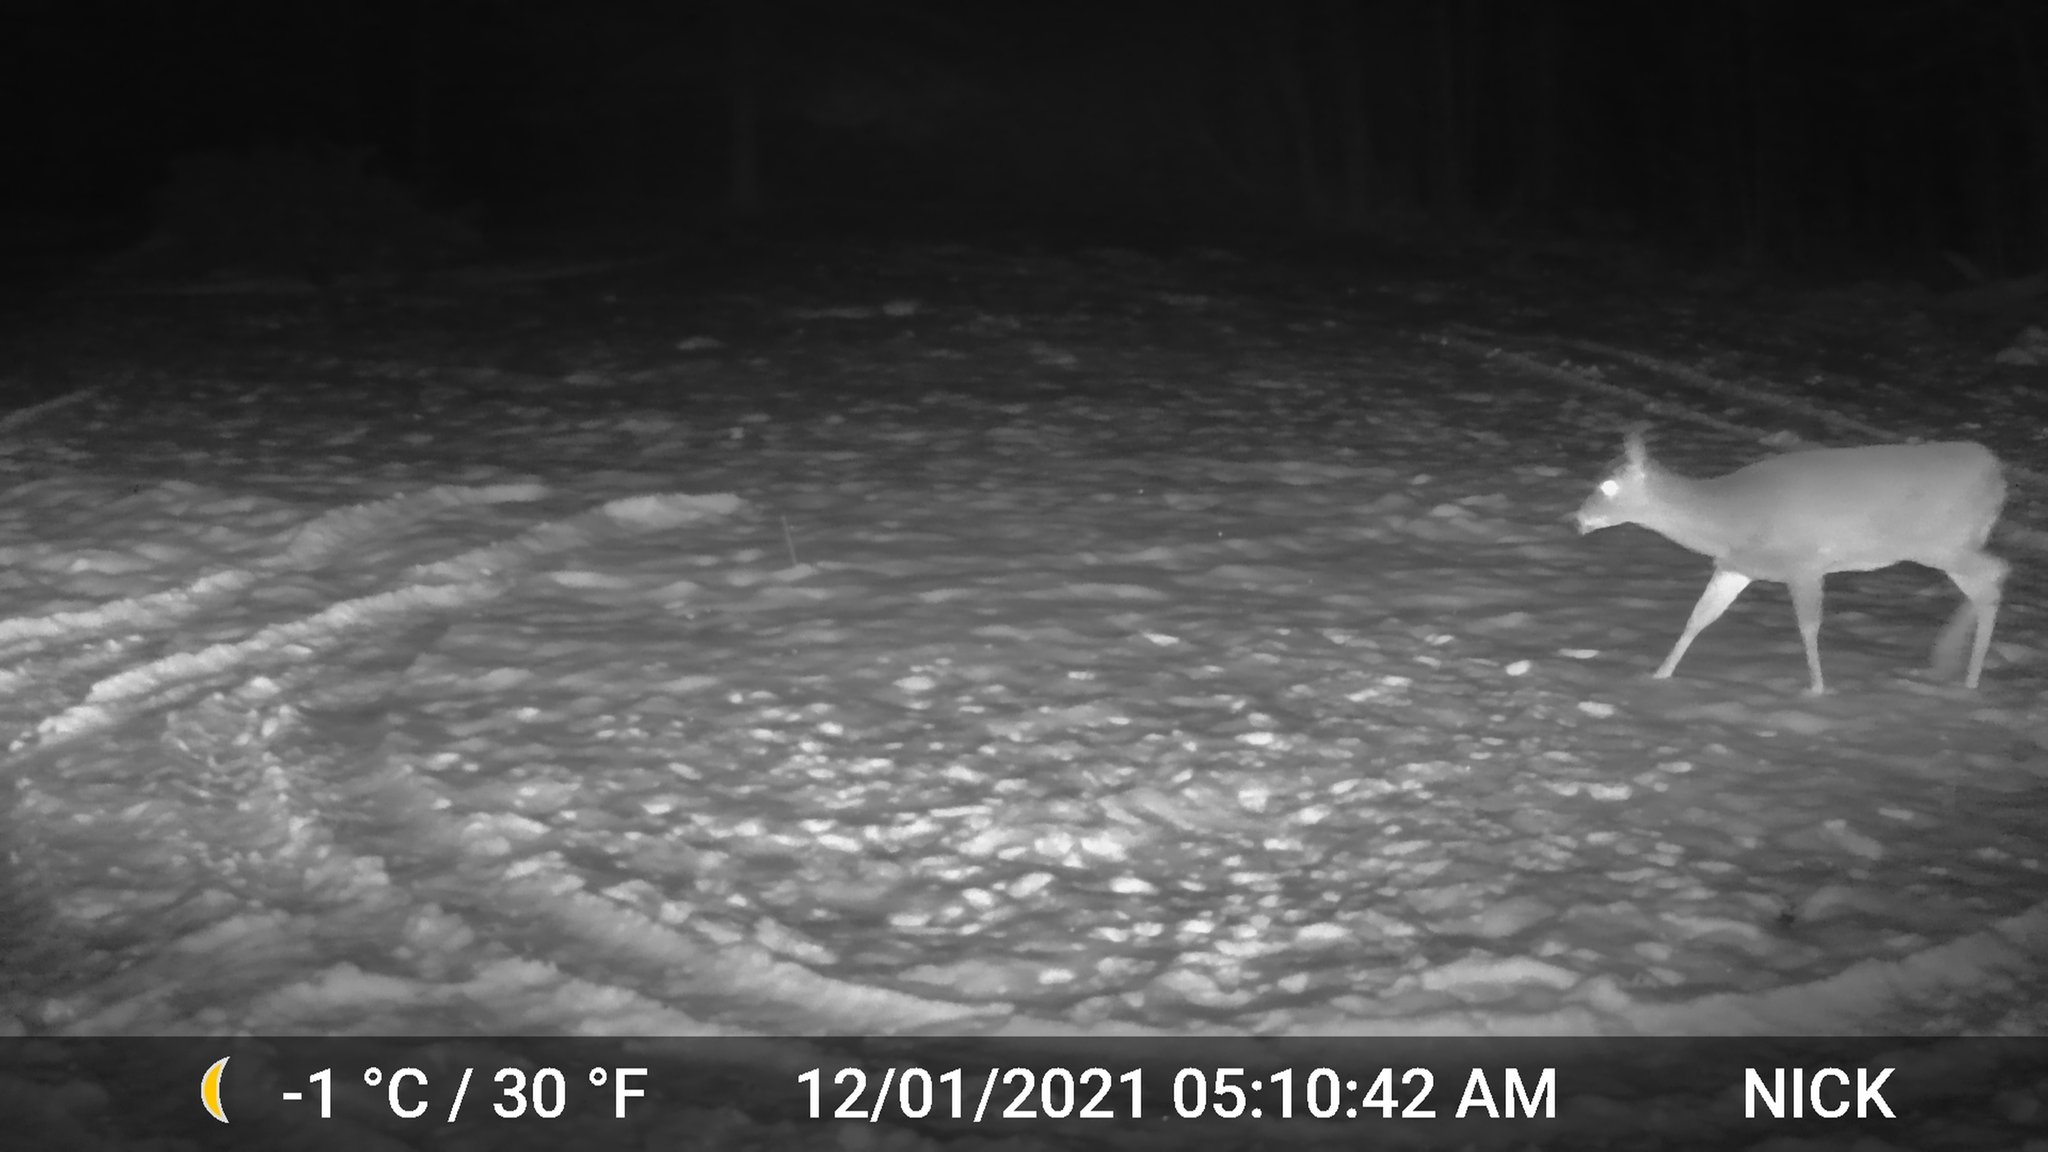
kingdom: Animalia
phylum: Chordata
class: Mammalia
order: Artiodactyla
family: Cervidae
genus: Odocoileus
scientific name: Odocoileus virginianus
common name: White-tailed deer
